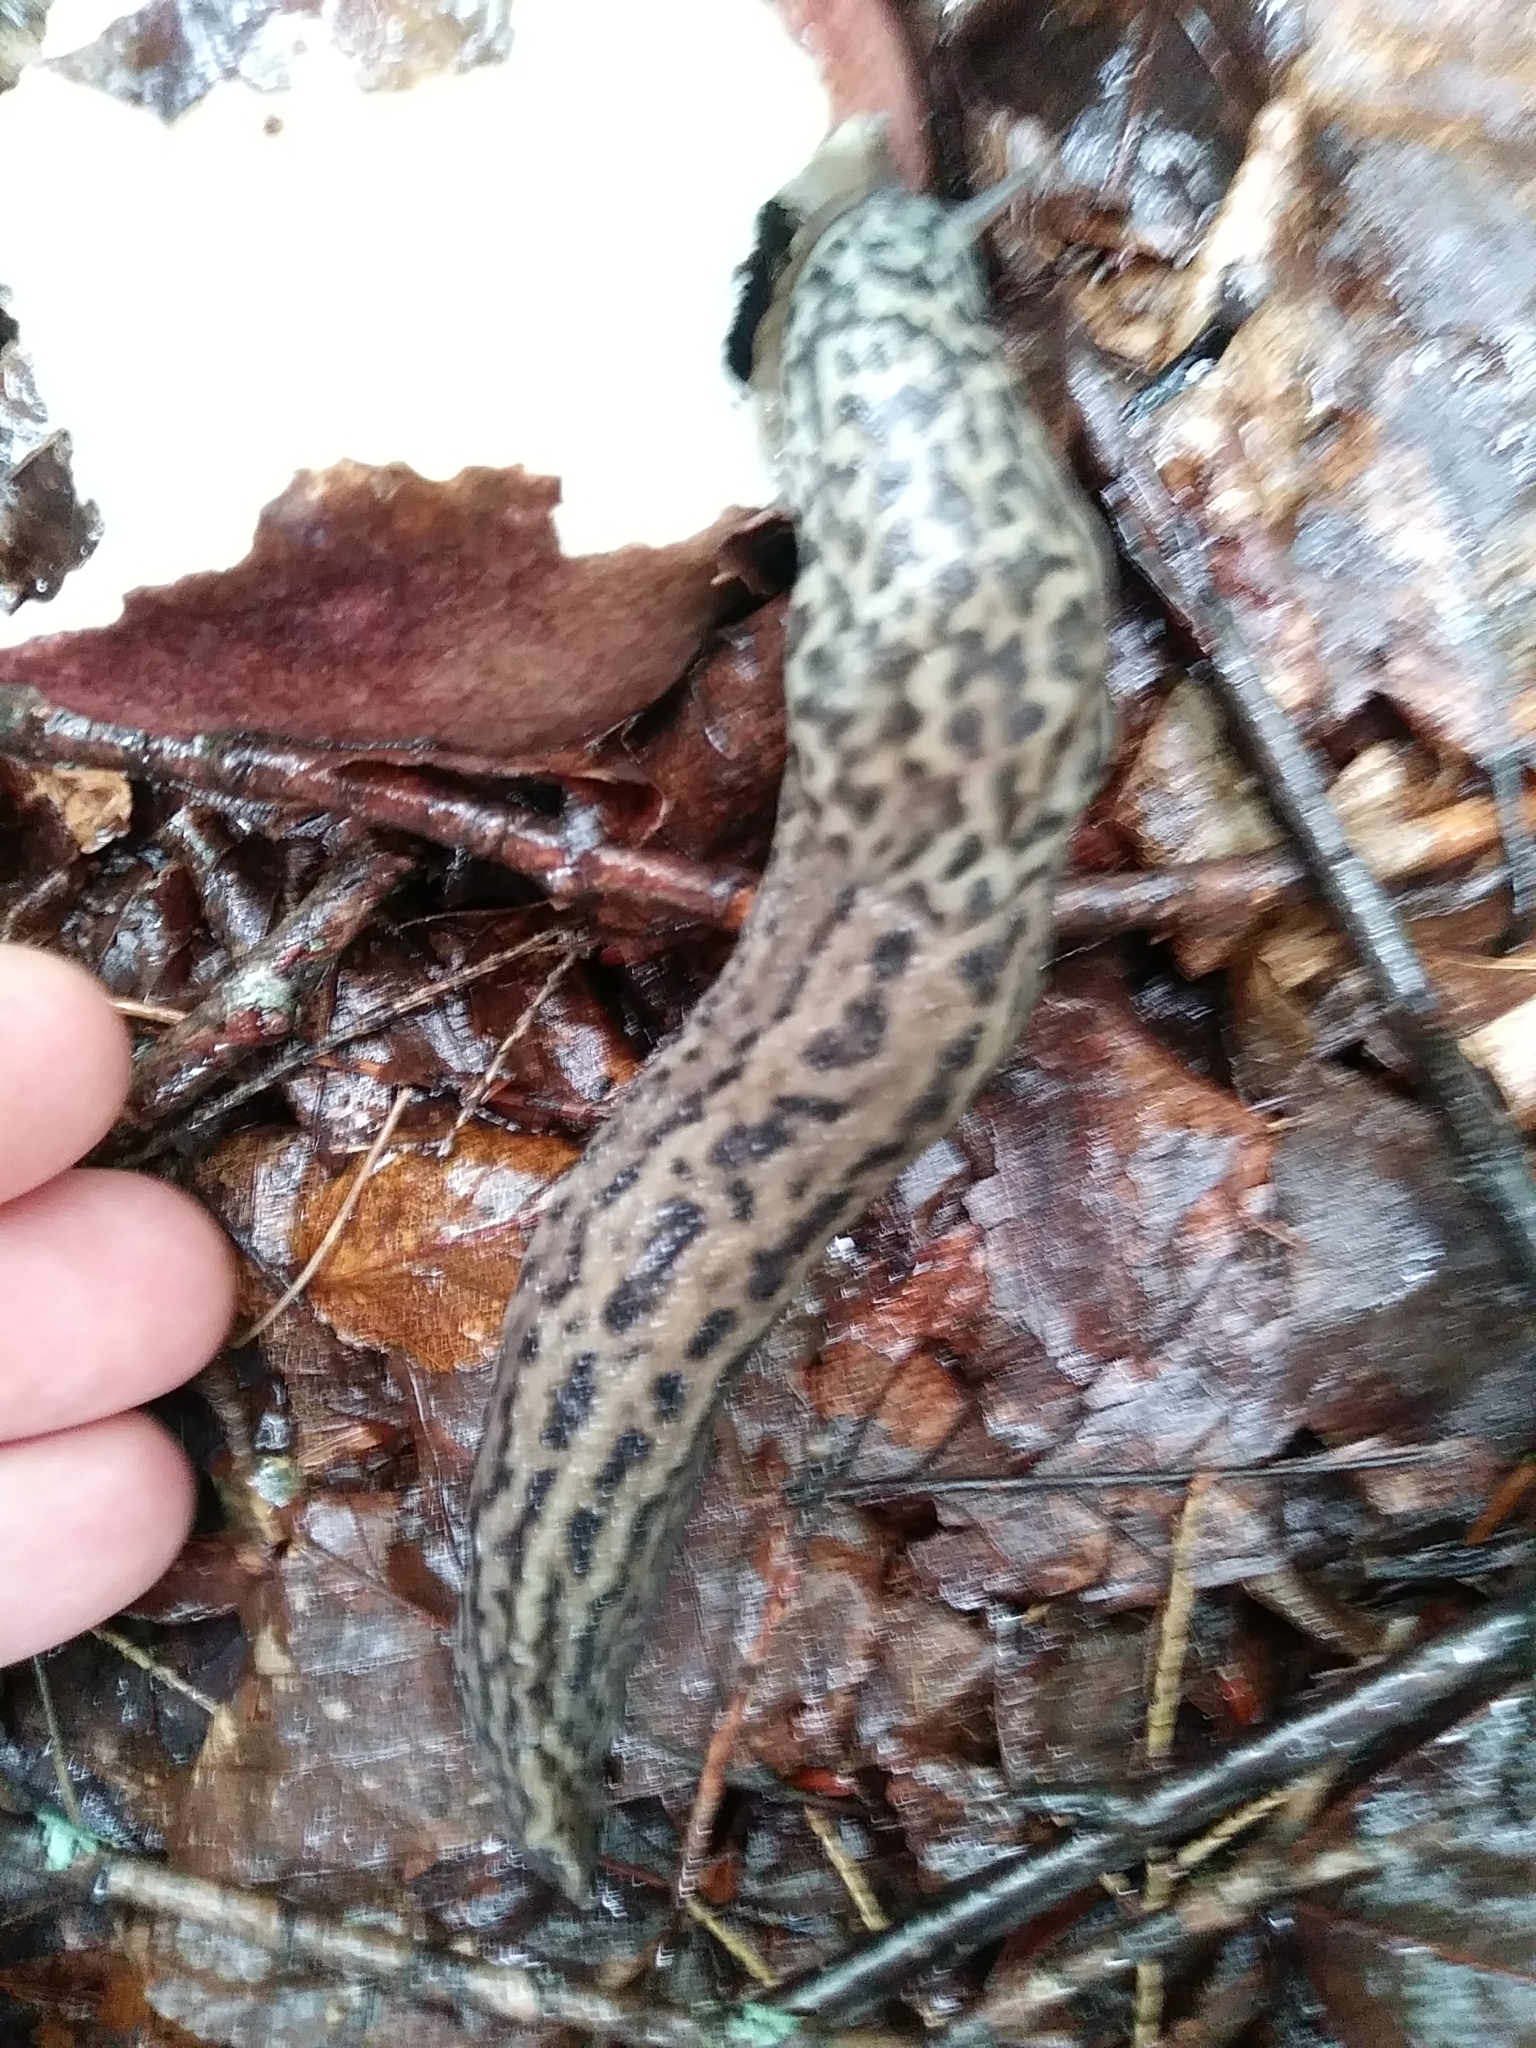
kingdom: Animalia
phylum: Mollusca
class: Gastropoda
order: Stylommatophora
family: Limacidae
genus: Limax
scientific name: Limax maximus
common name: Great grey slug
